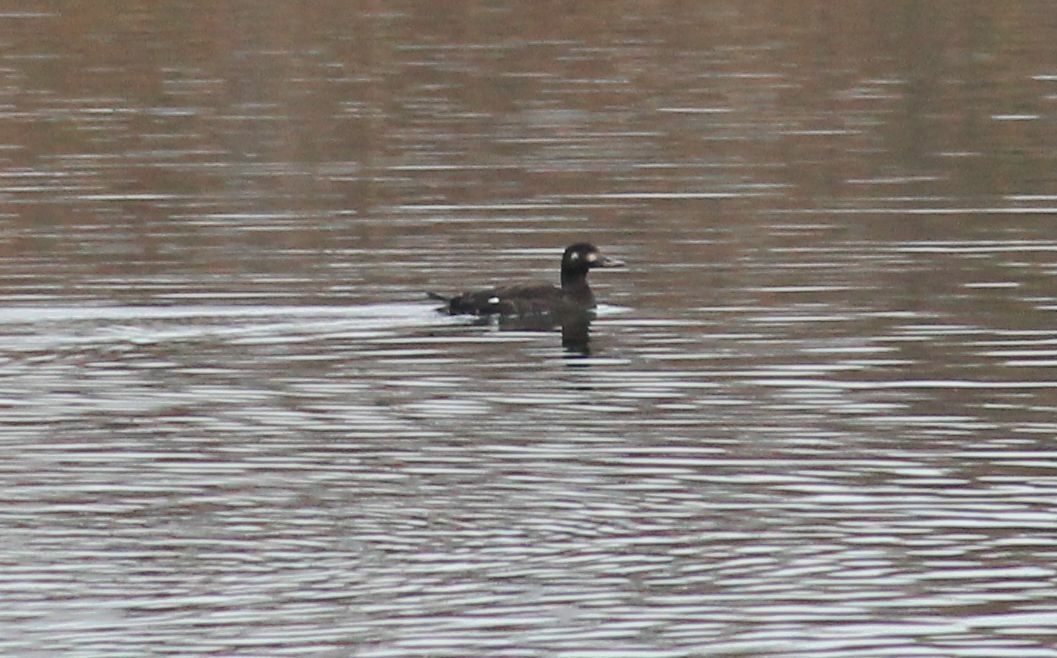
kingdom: Animalia
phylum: Chordata
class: Aves
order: Anseriformes
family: Anatidae
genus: Melanitta
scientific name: Melanitta fusca
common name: Velvet scoter
